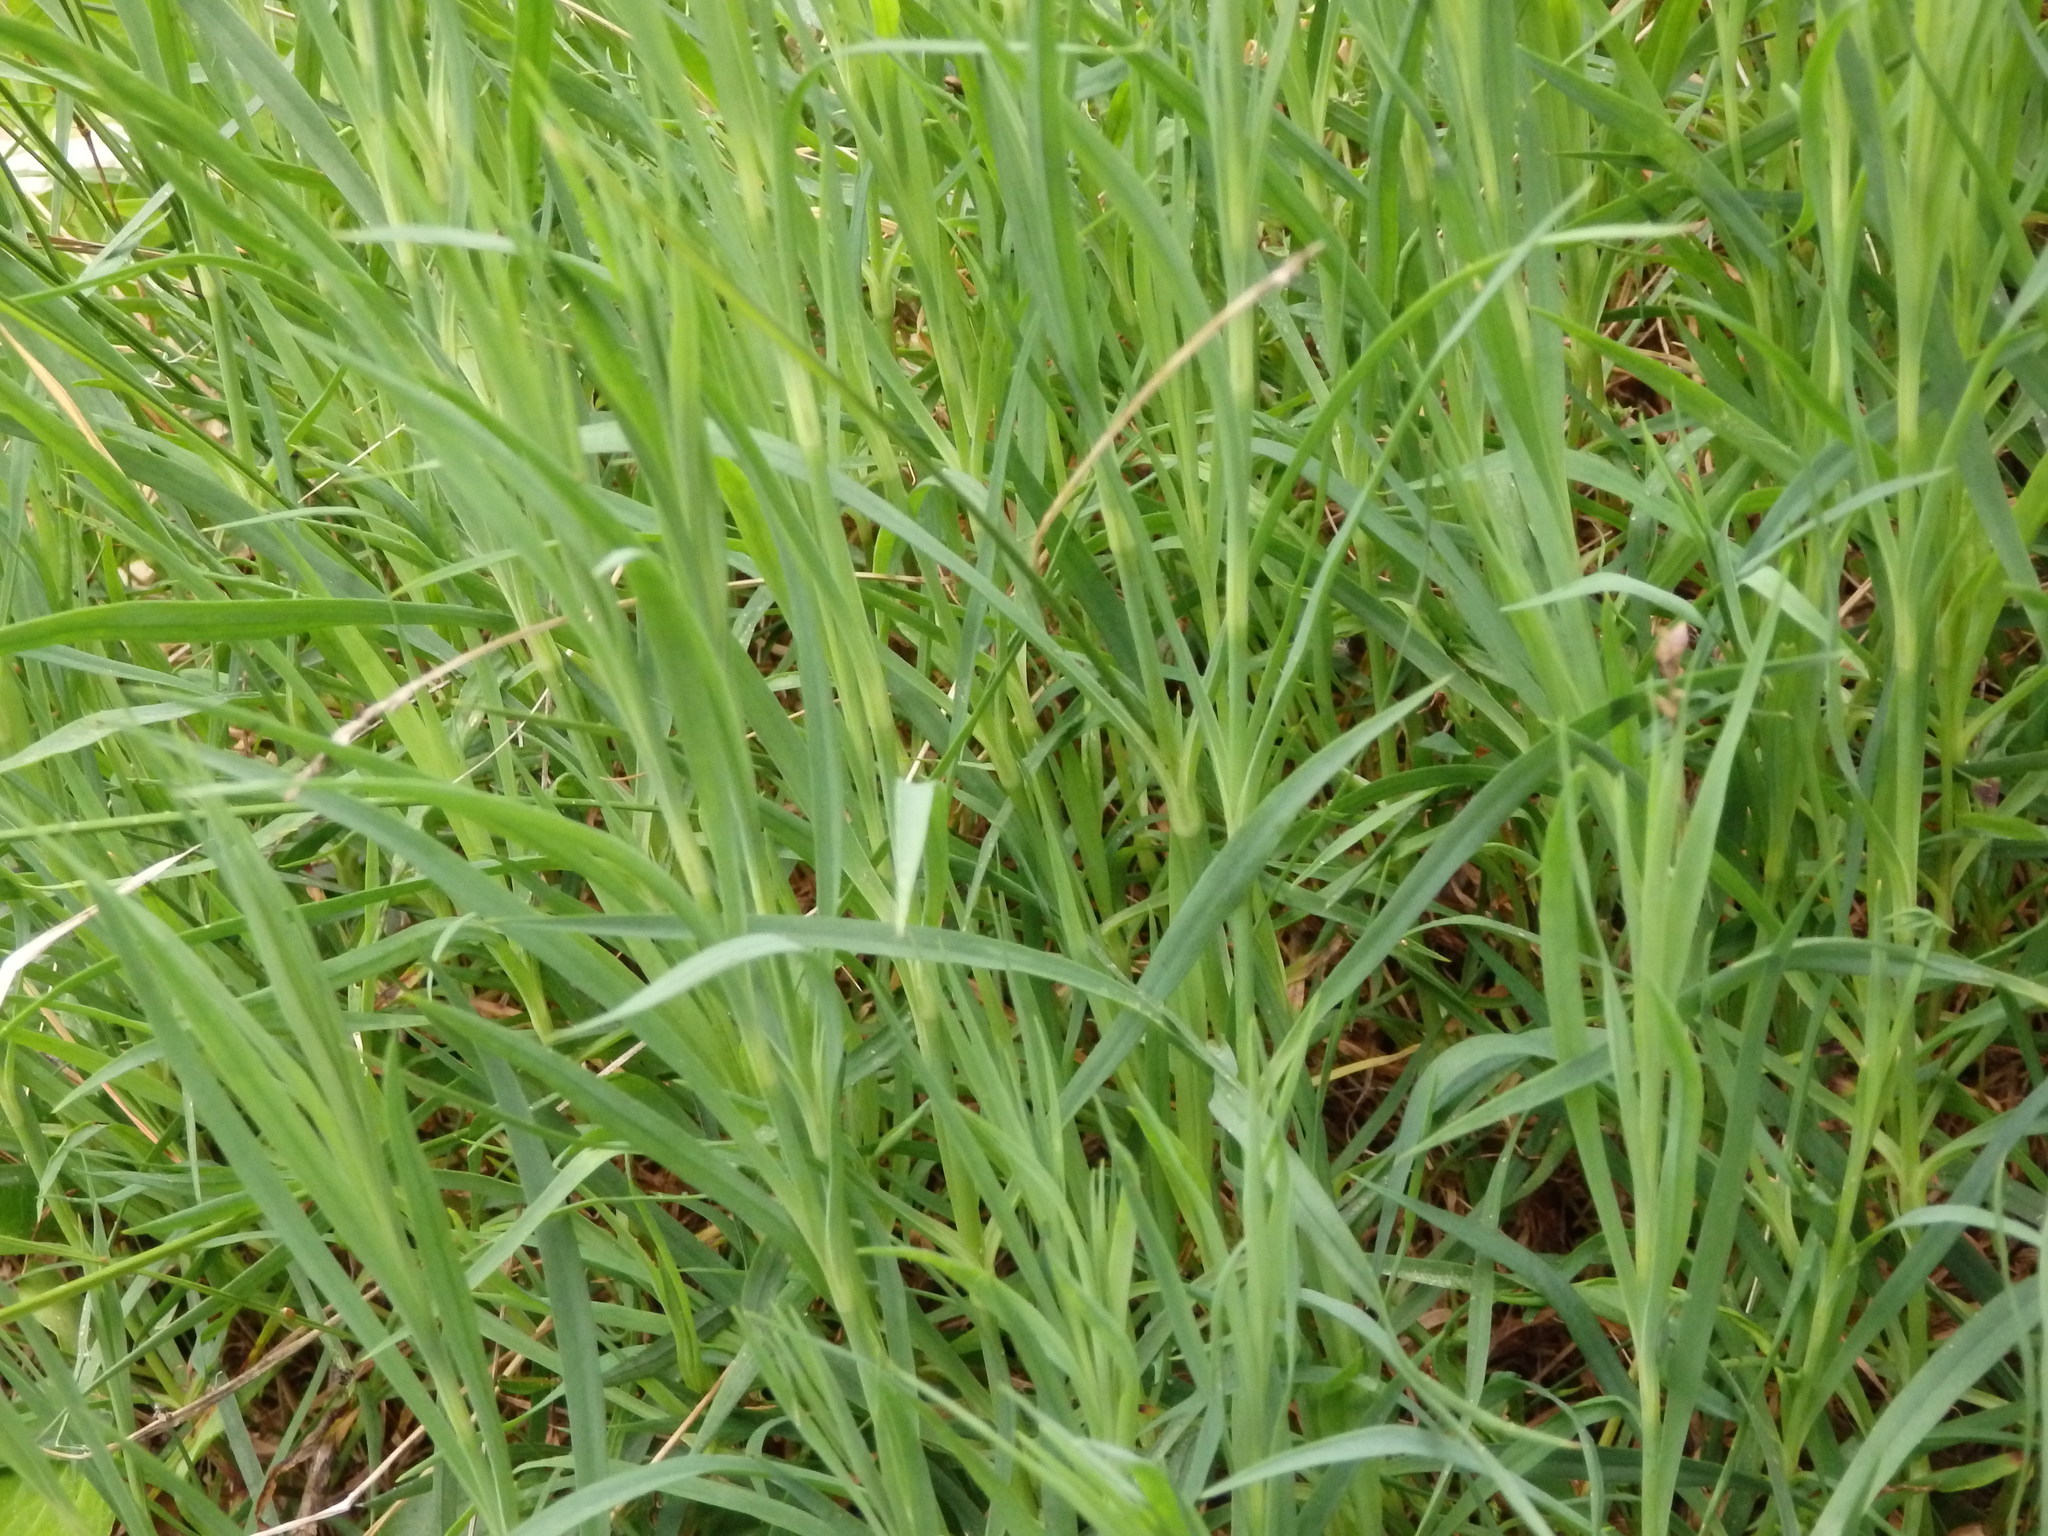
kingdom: Plantae
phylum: Tracheophyta
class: Magnoliopsida
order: Caryophyllales
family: Caryophyllaceae
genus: Dianthus
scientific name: Dianthus hyssopifolius
